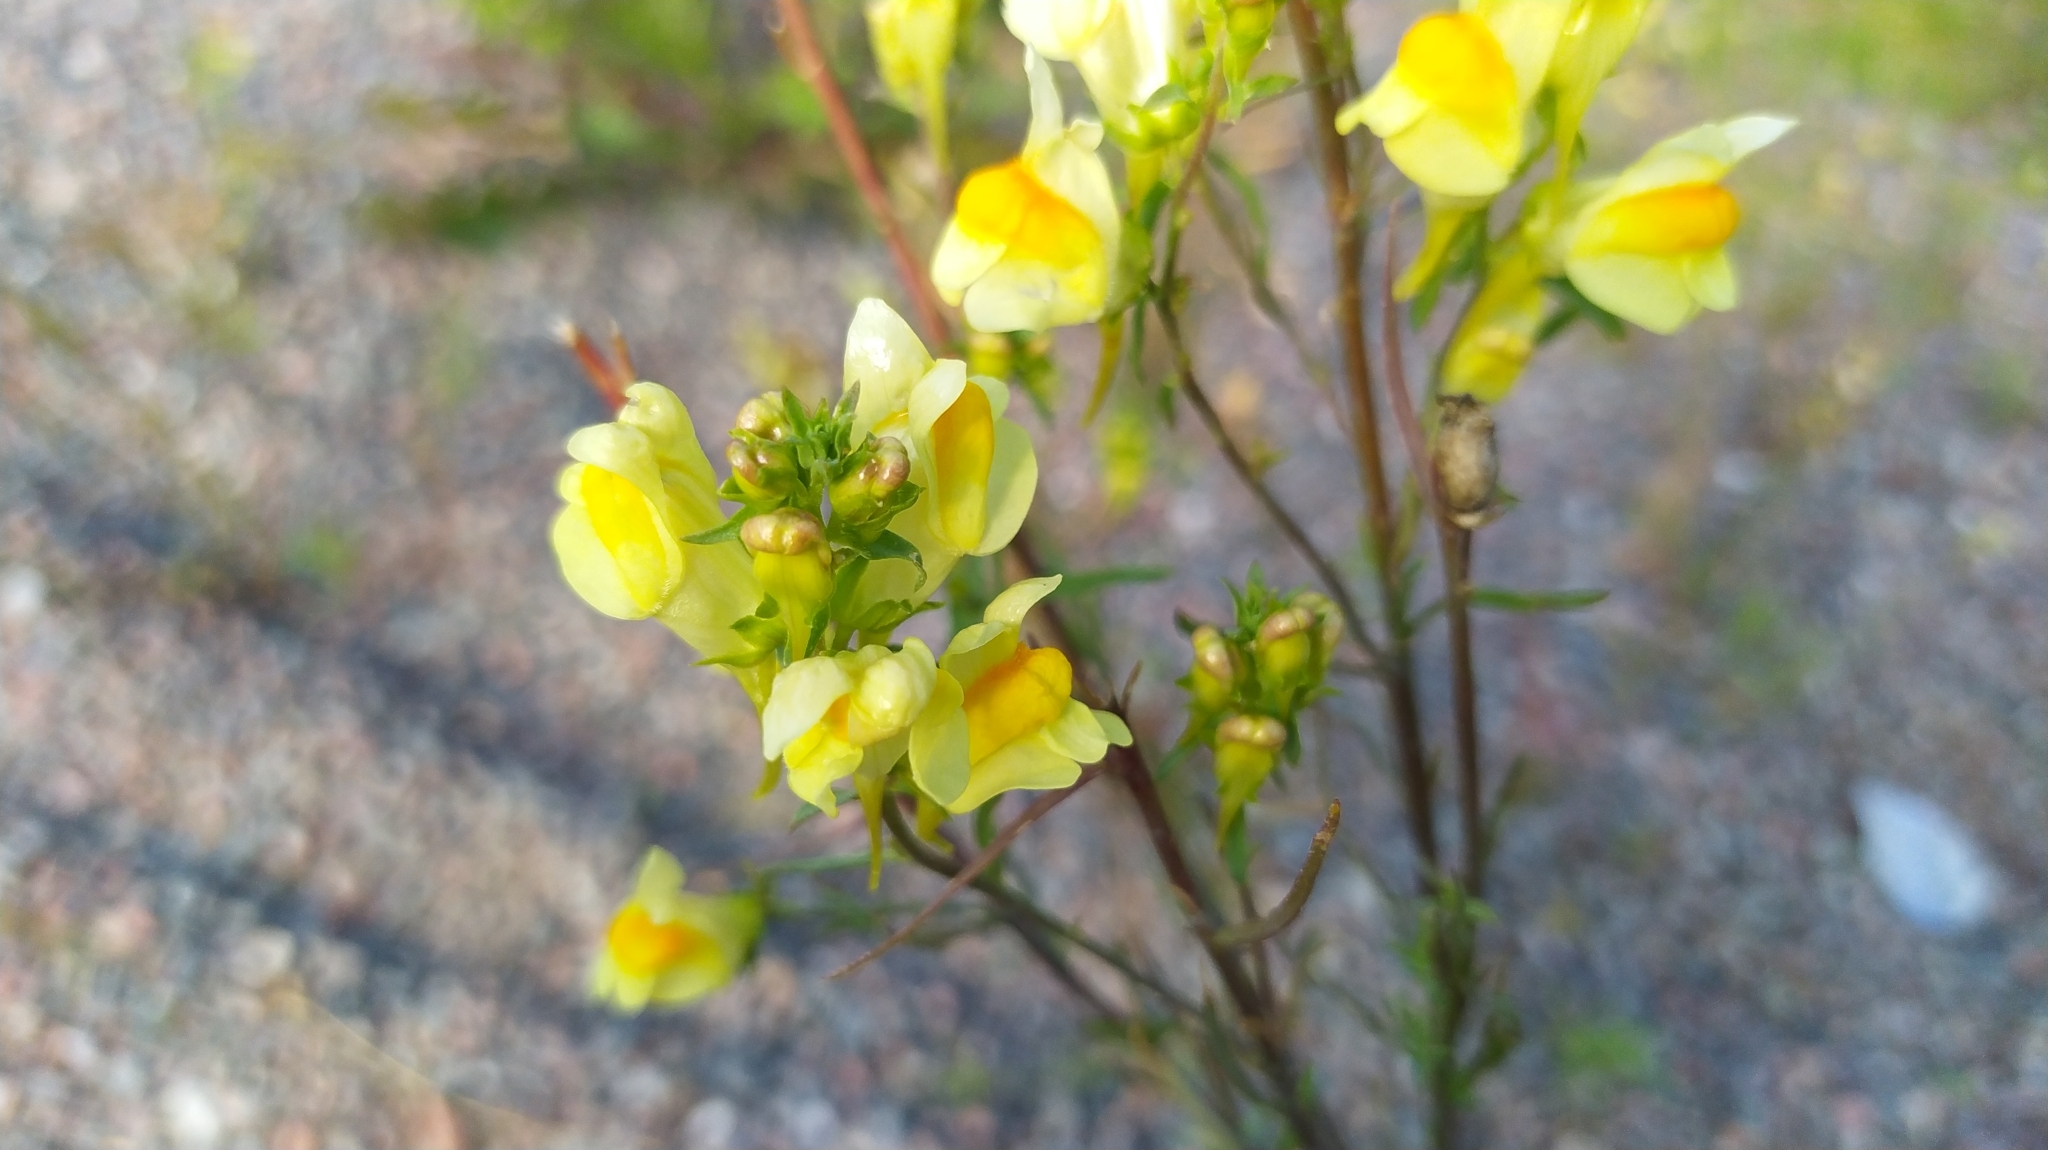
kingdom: Plantae
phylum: Tracheophyta
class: Magnoliopsida
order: Lamiales
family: Plantaginaceae
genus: Linaria
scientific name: Linaria vulgaris
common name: Butter and eggs
